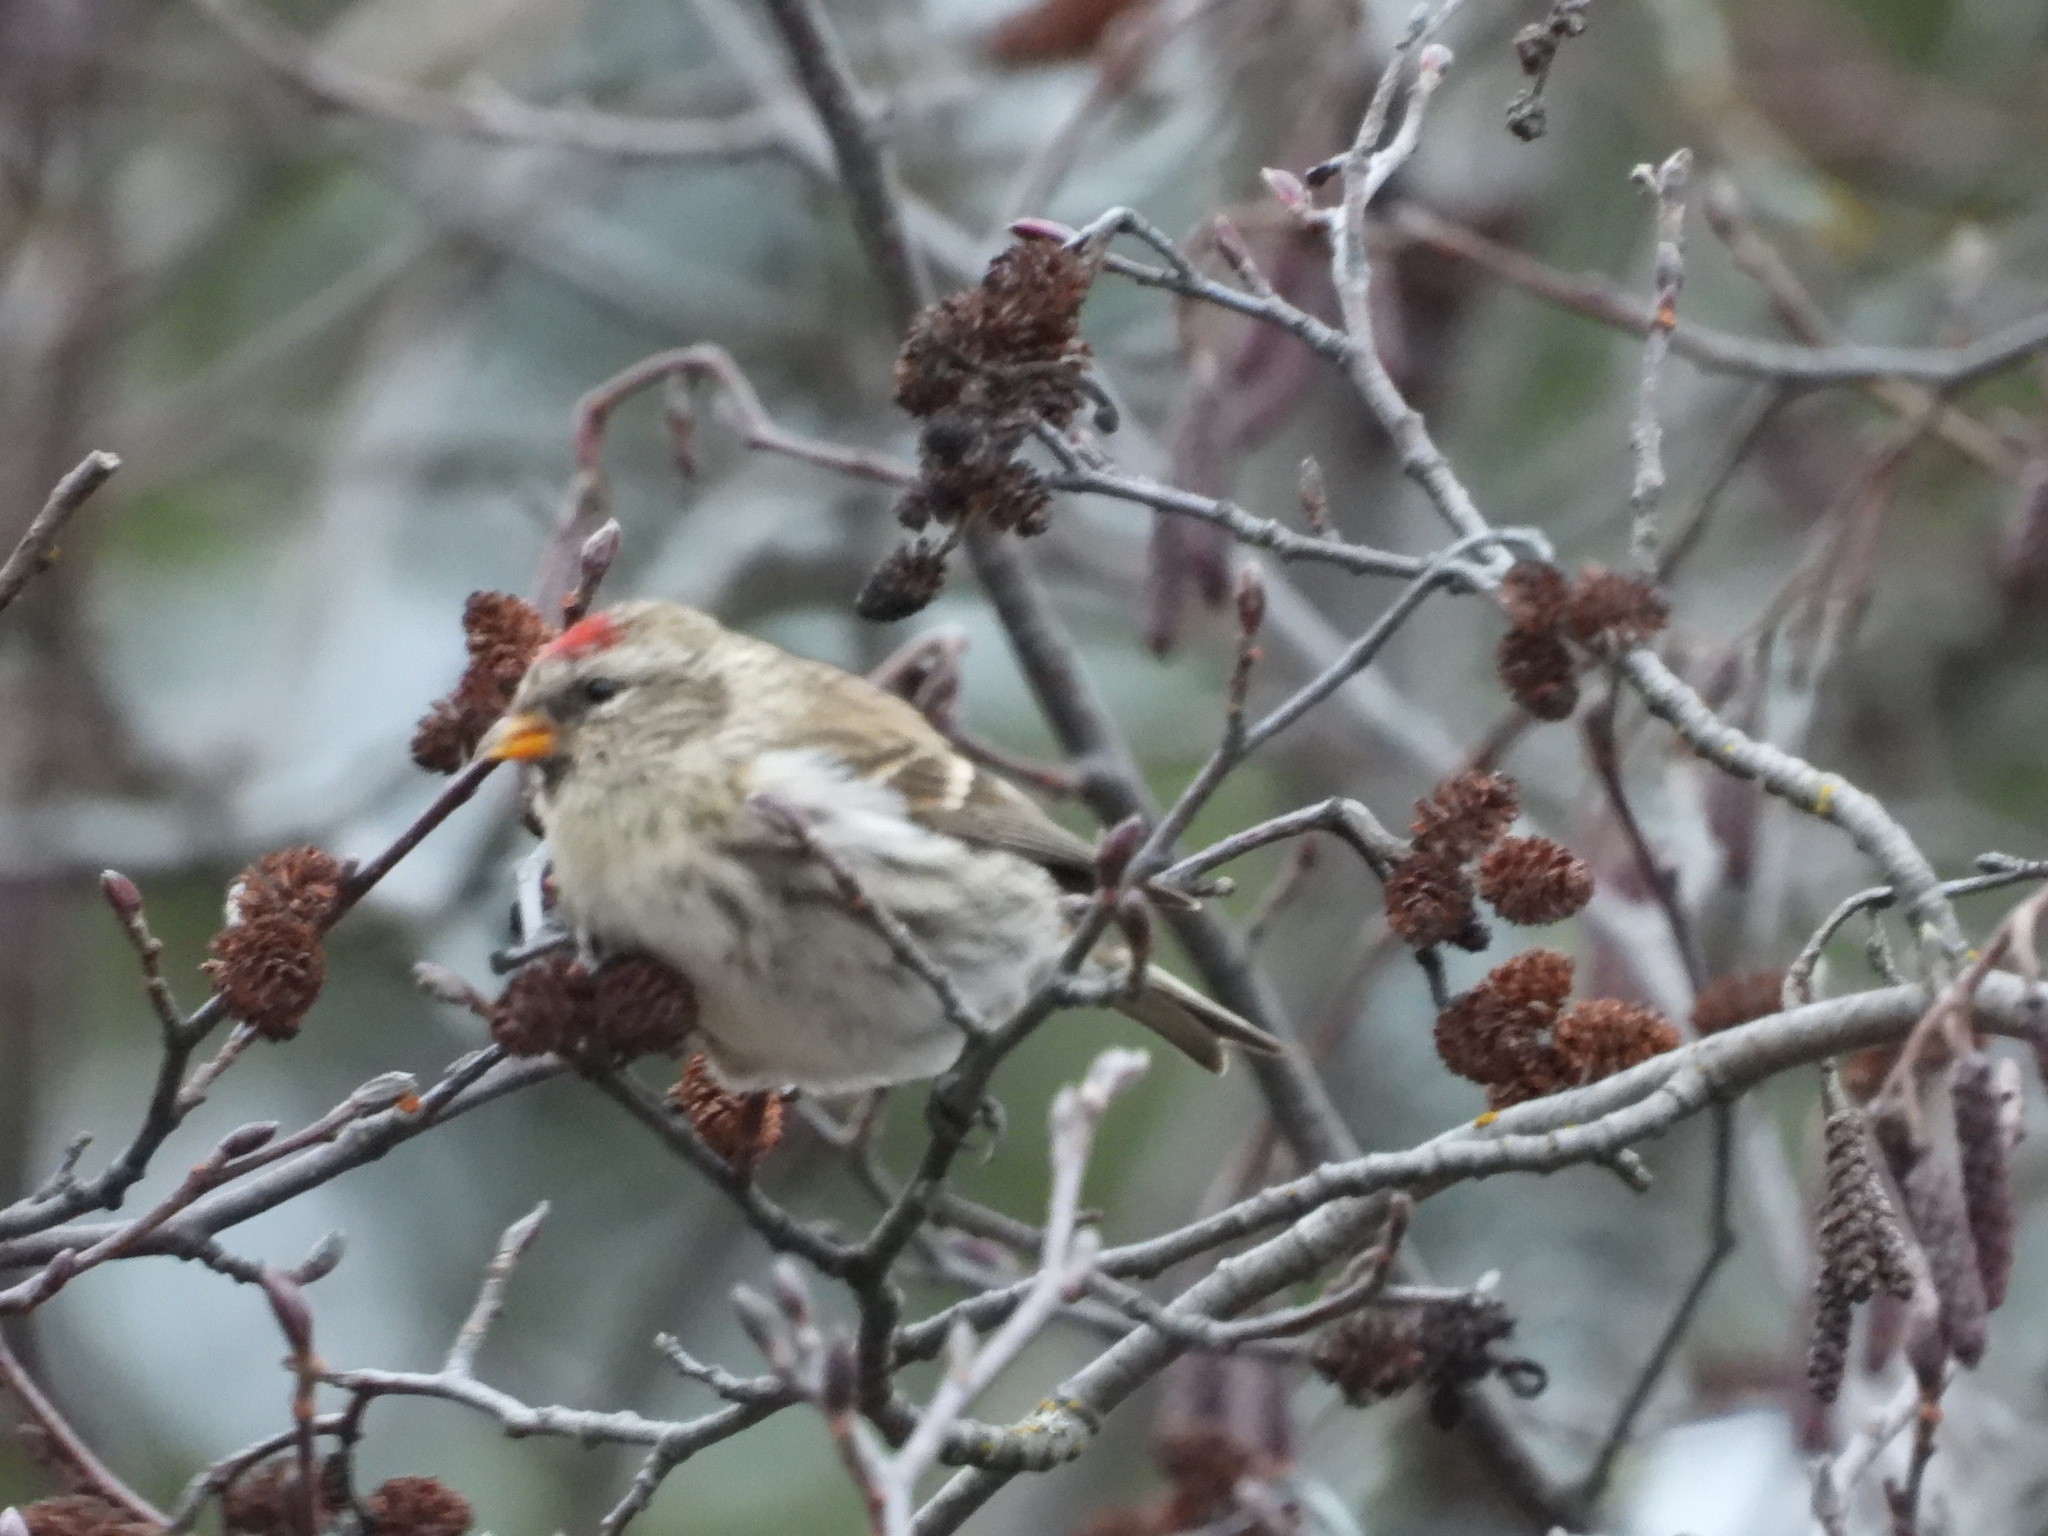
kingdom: Animalia
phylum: Chordata
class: Aves
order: Passeriformes
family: Fringillidae
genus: Acanthis
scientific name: Acanthis flammea
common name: Common redpoll
